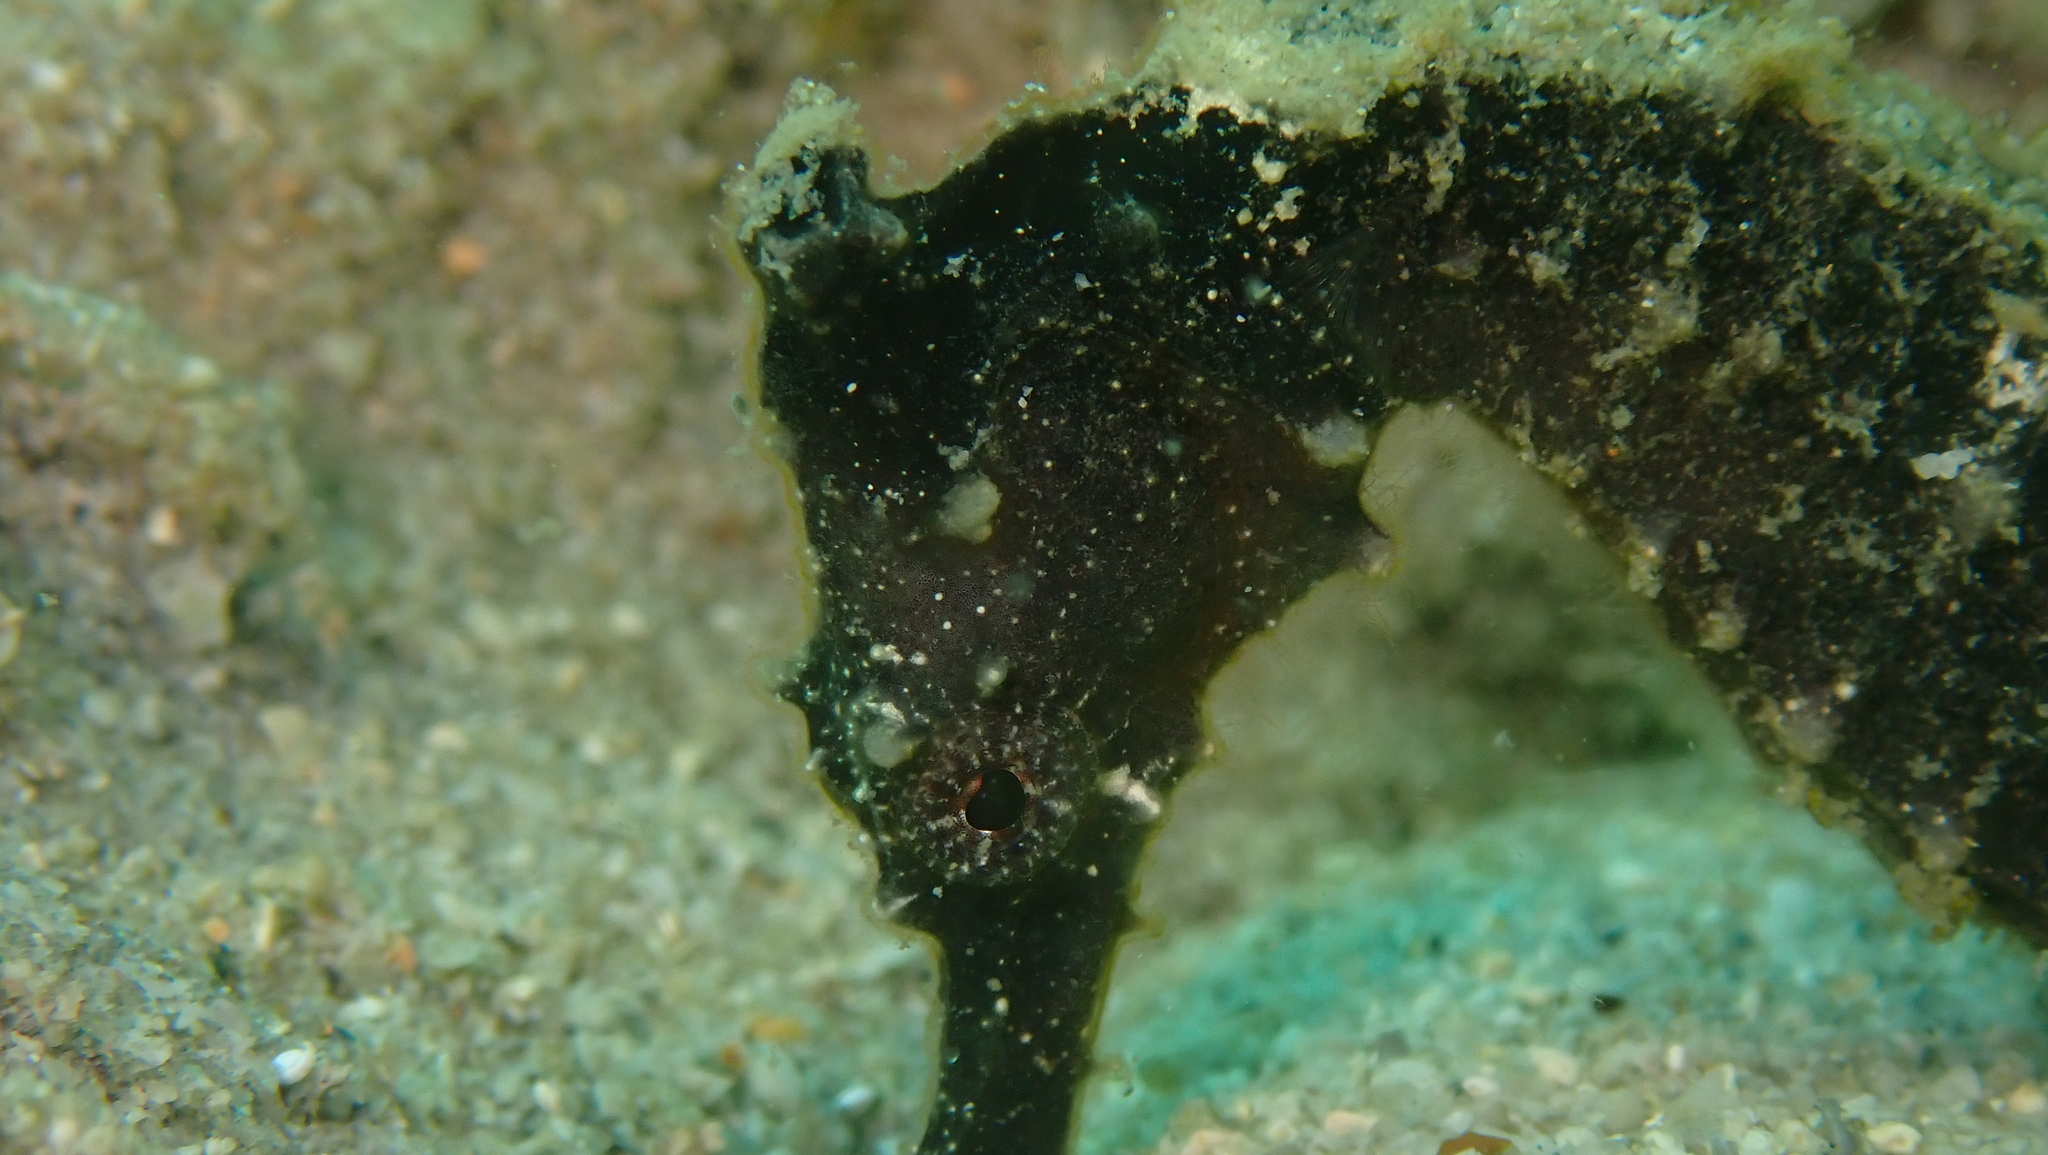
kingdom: Animalia
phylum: Chordata
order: Syngnathiformes
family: Syngnathidae
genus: Hippocampus
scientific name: Hippocampus kuda
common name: Spotted seahorse
